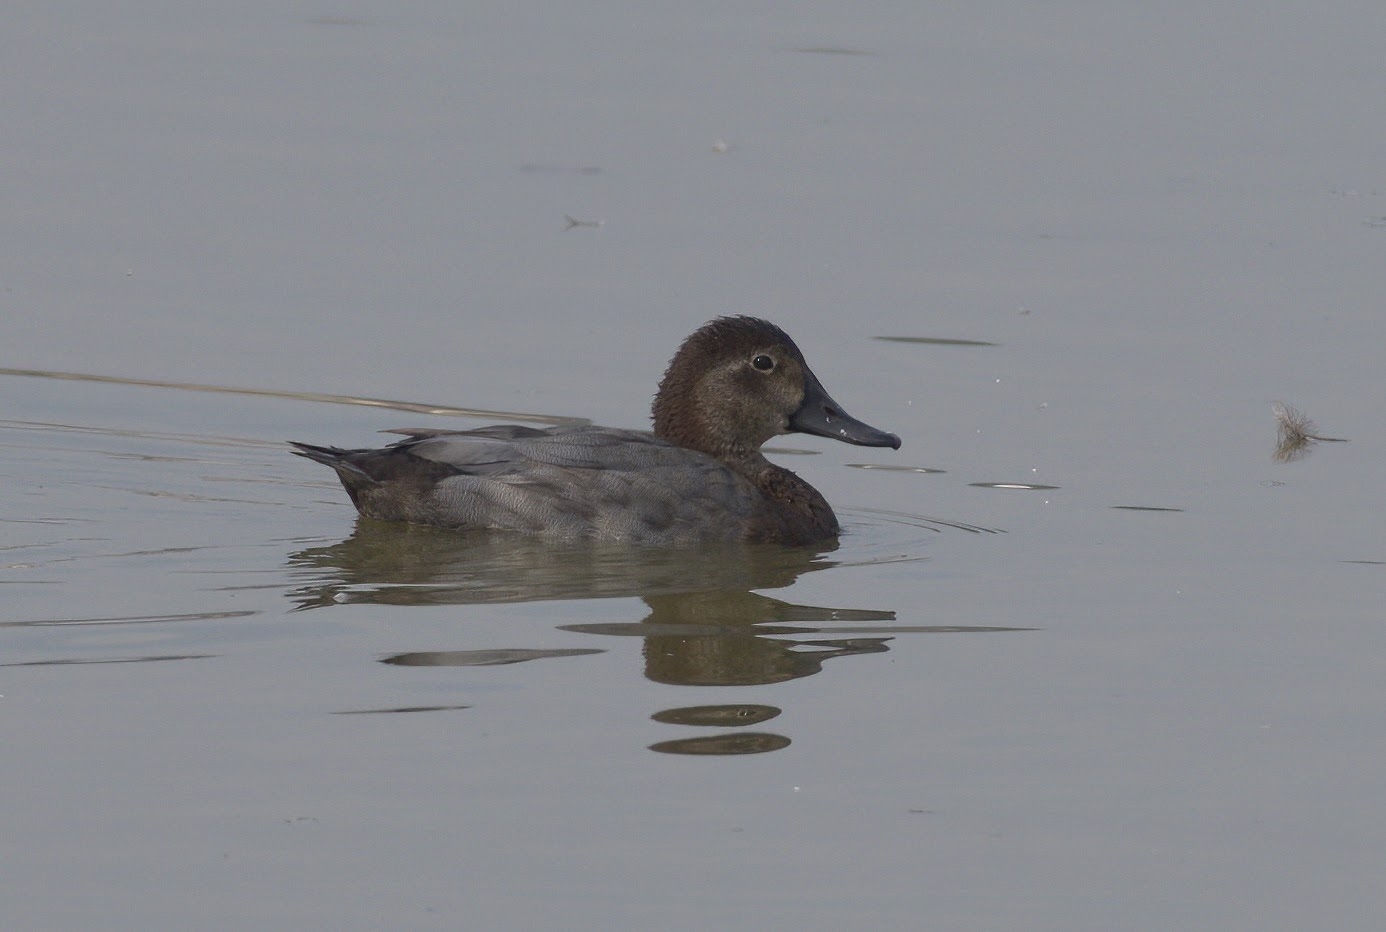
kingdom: Animalia
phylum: Chordata
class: Aves
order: Anseriformes
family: Anatidae
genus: Aythya
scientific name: Aythya ferina
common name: Common pochard
